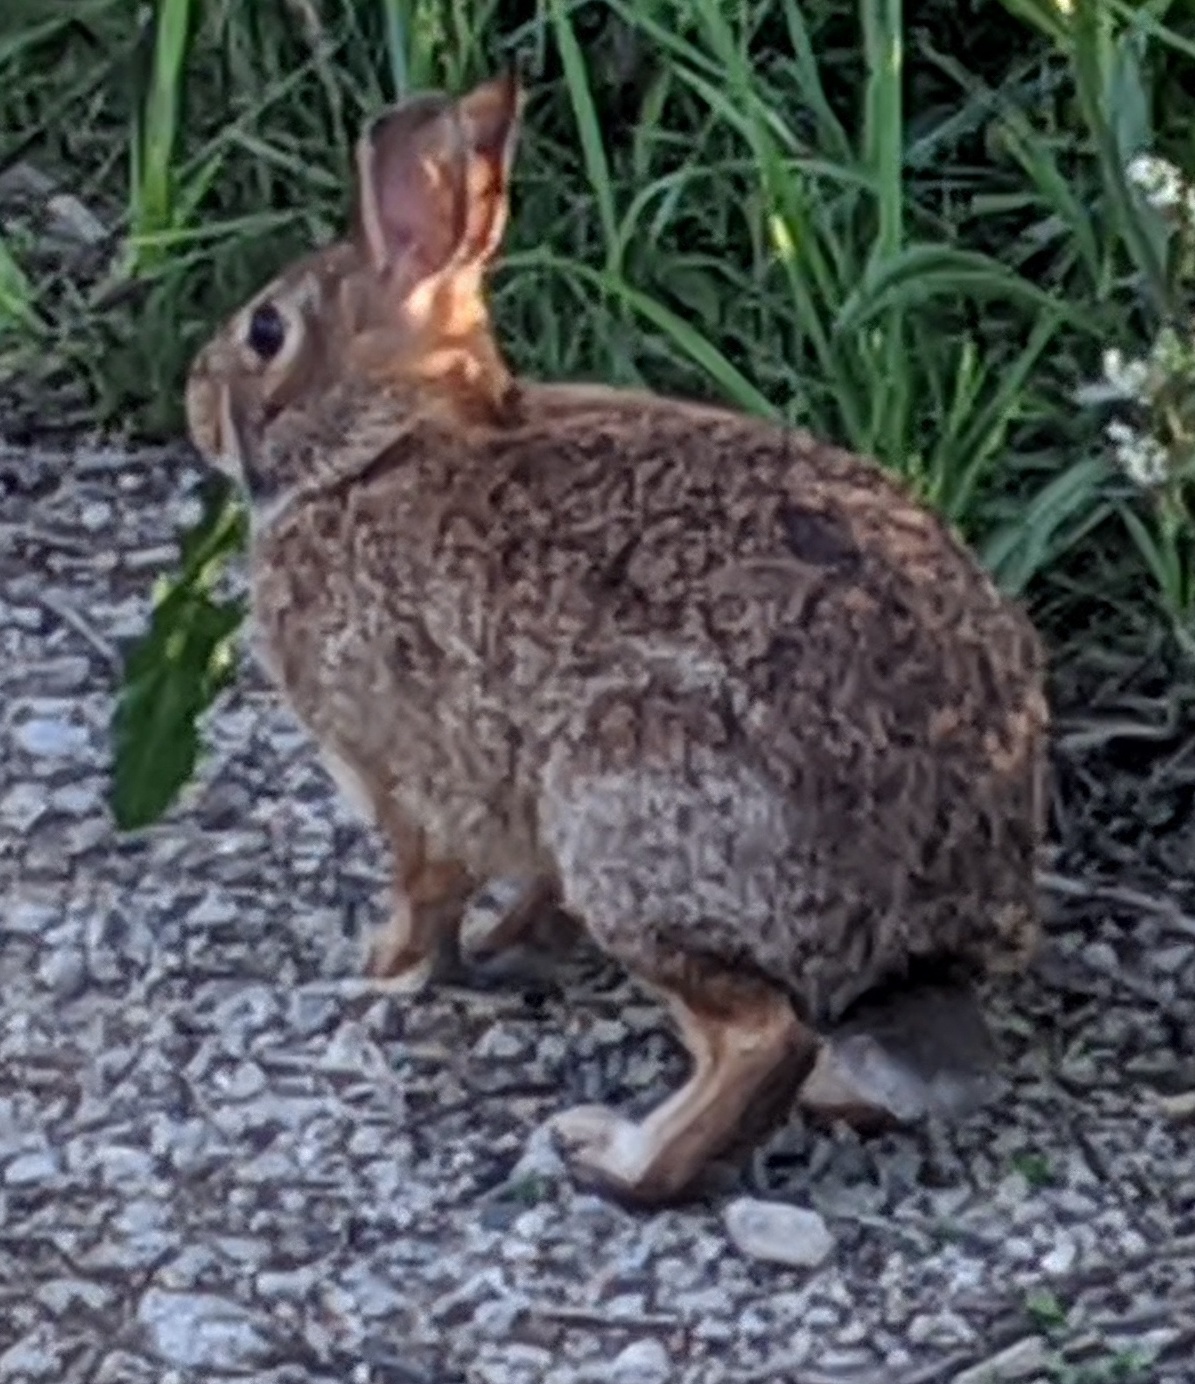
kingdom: Animalia
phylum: Chordata
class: Mammalia
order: Lagomorpha
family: Leporidae
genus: Sylvilagus
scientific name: Sylvilagus floridanus
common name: Eastern cottontail
